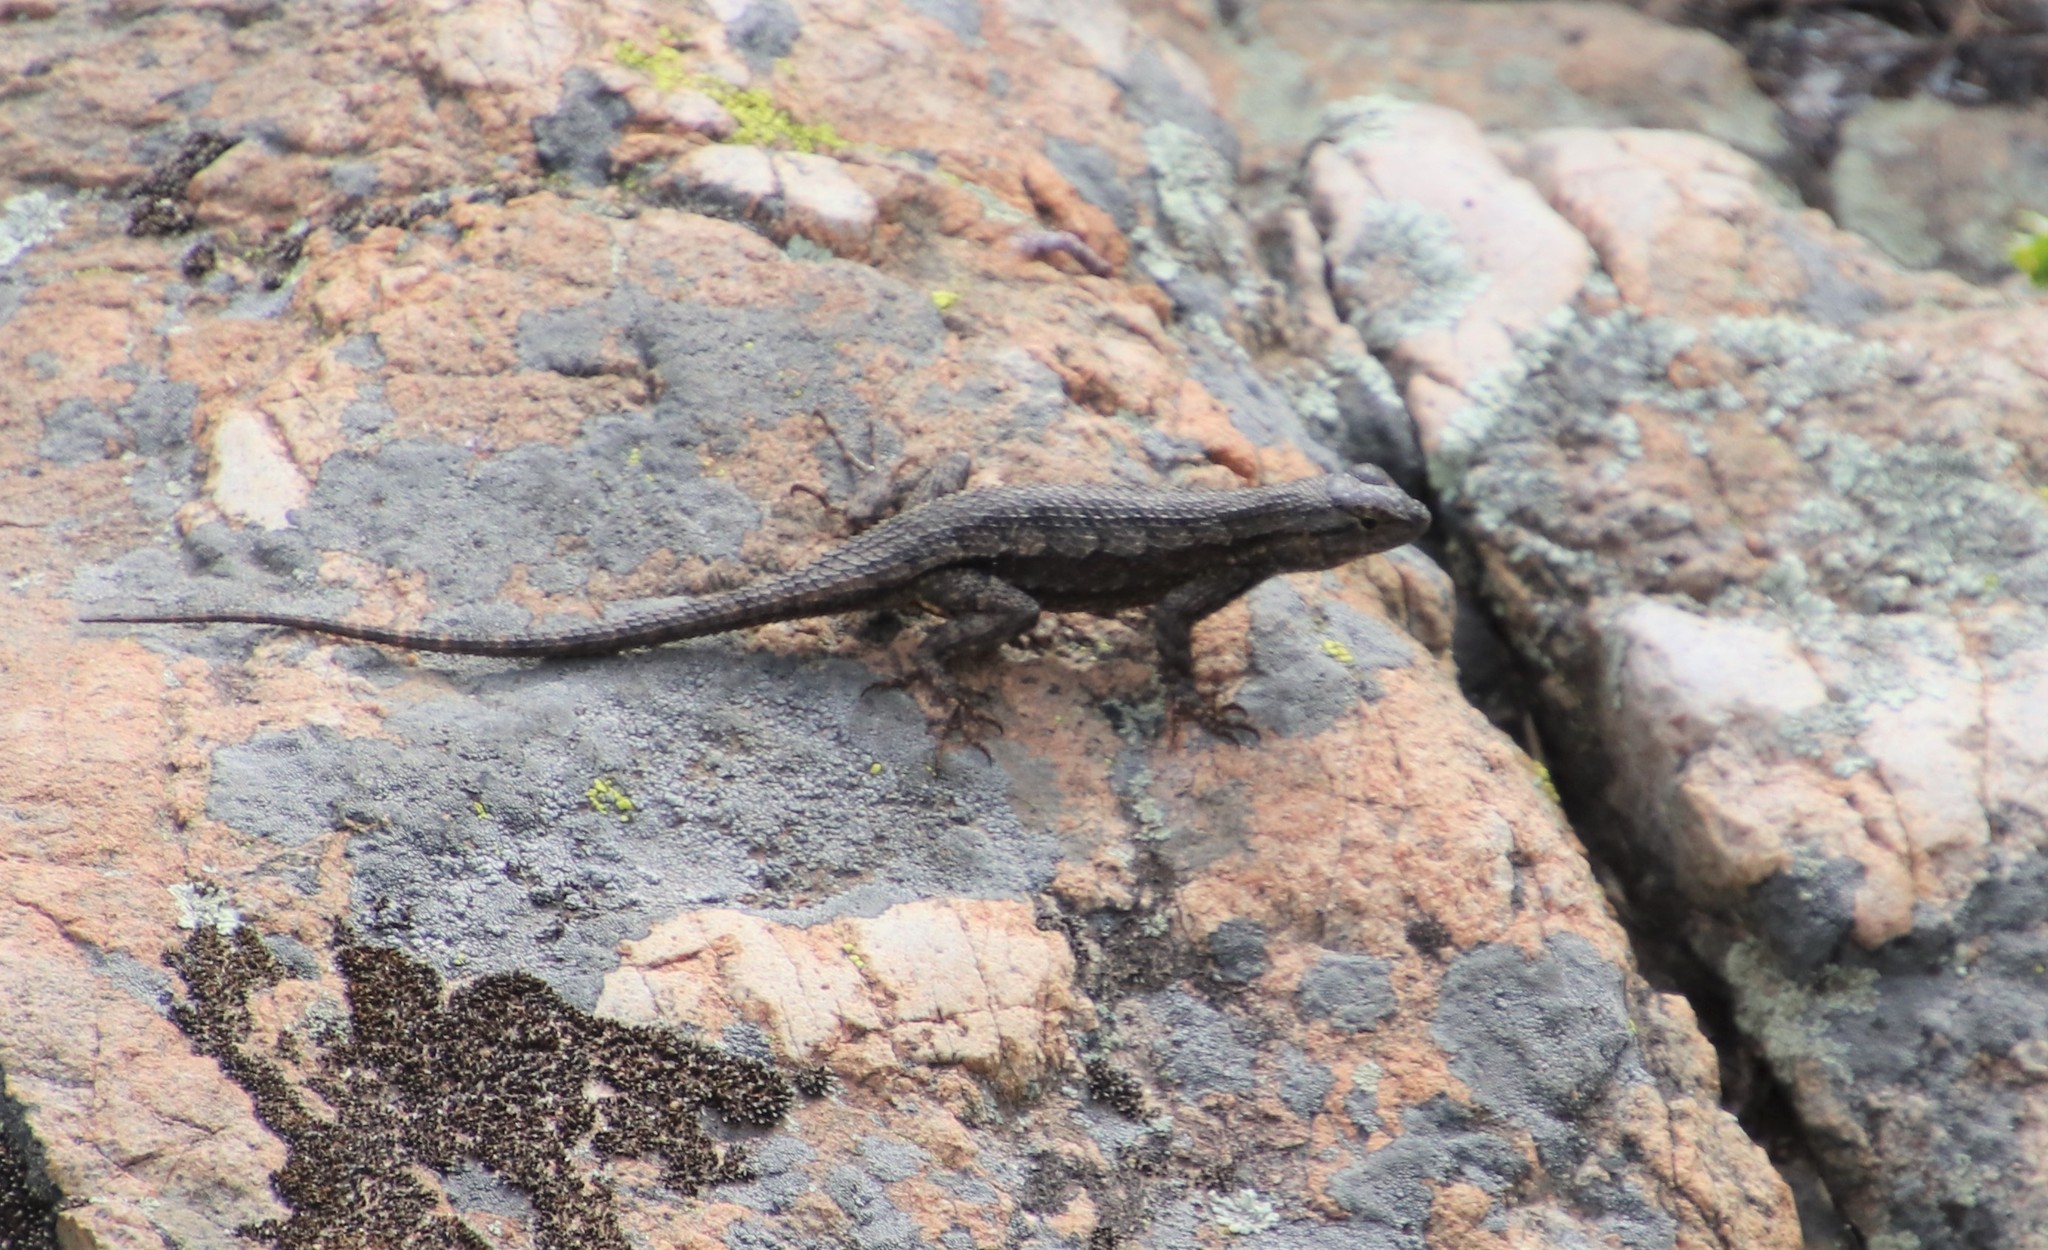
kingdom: Animalia
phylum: Chordata
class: Squamata
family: Phrynosomatidae
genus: Sceloporus
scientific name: Sceloporus occidentalis
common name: Western fence lizard
